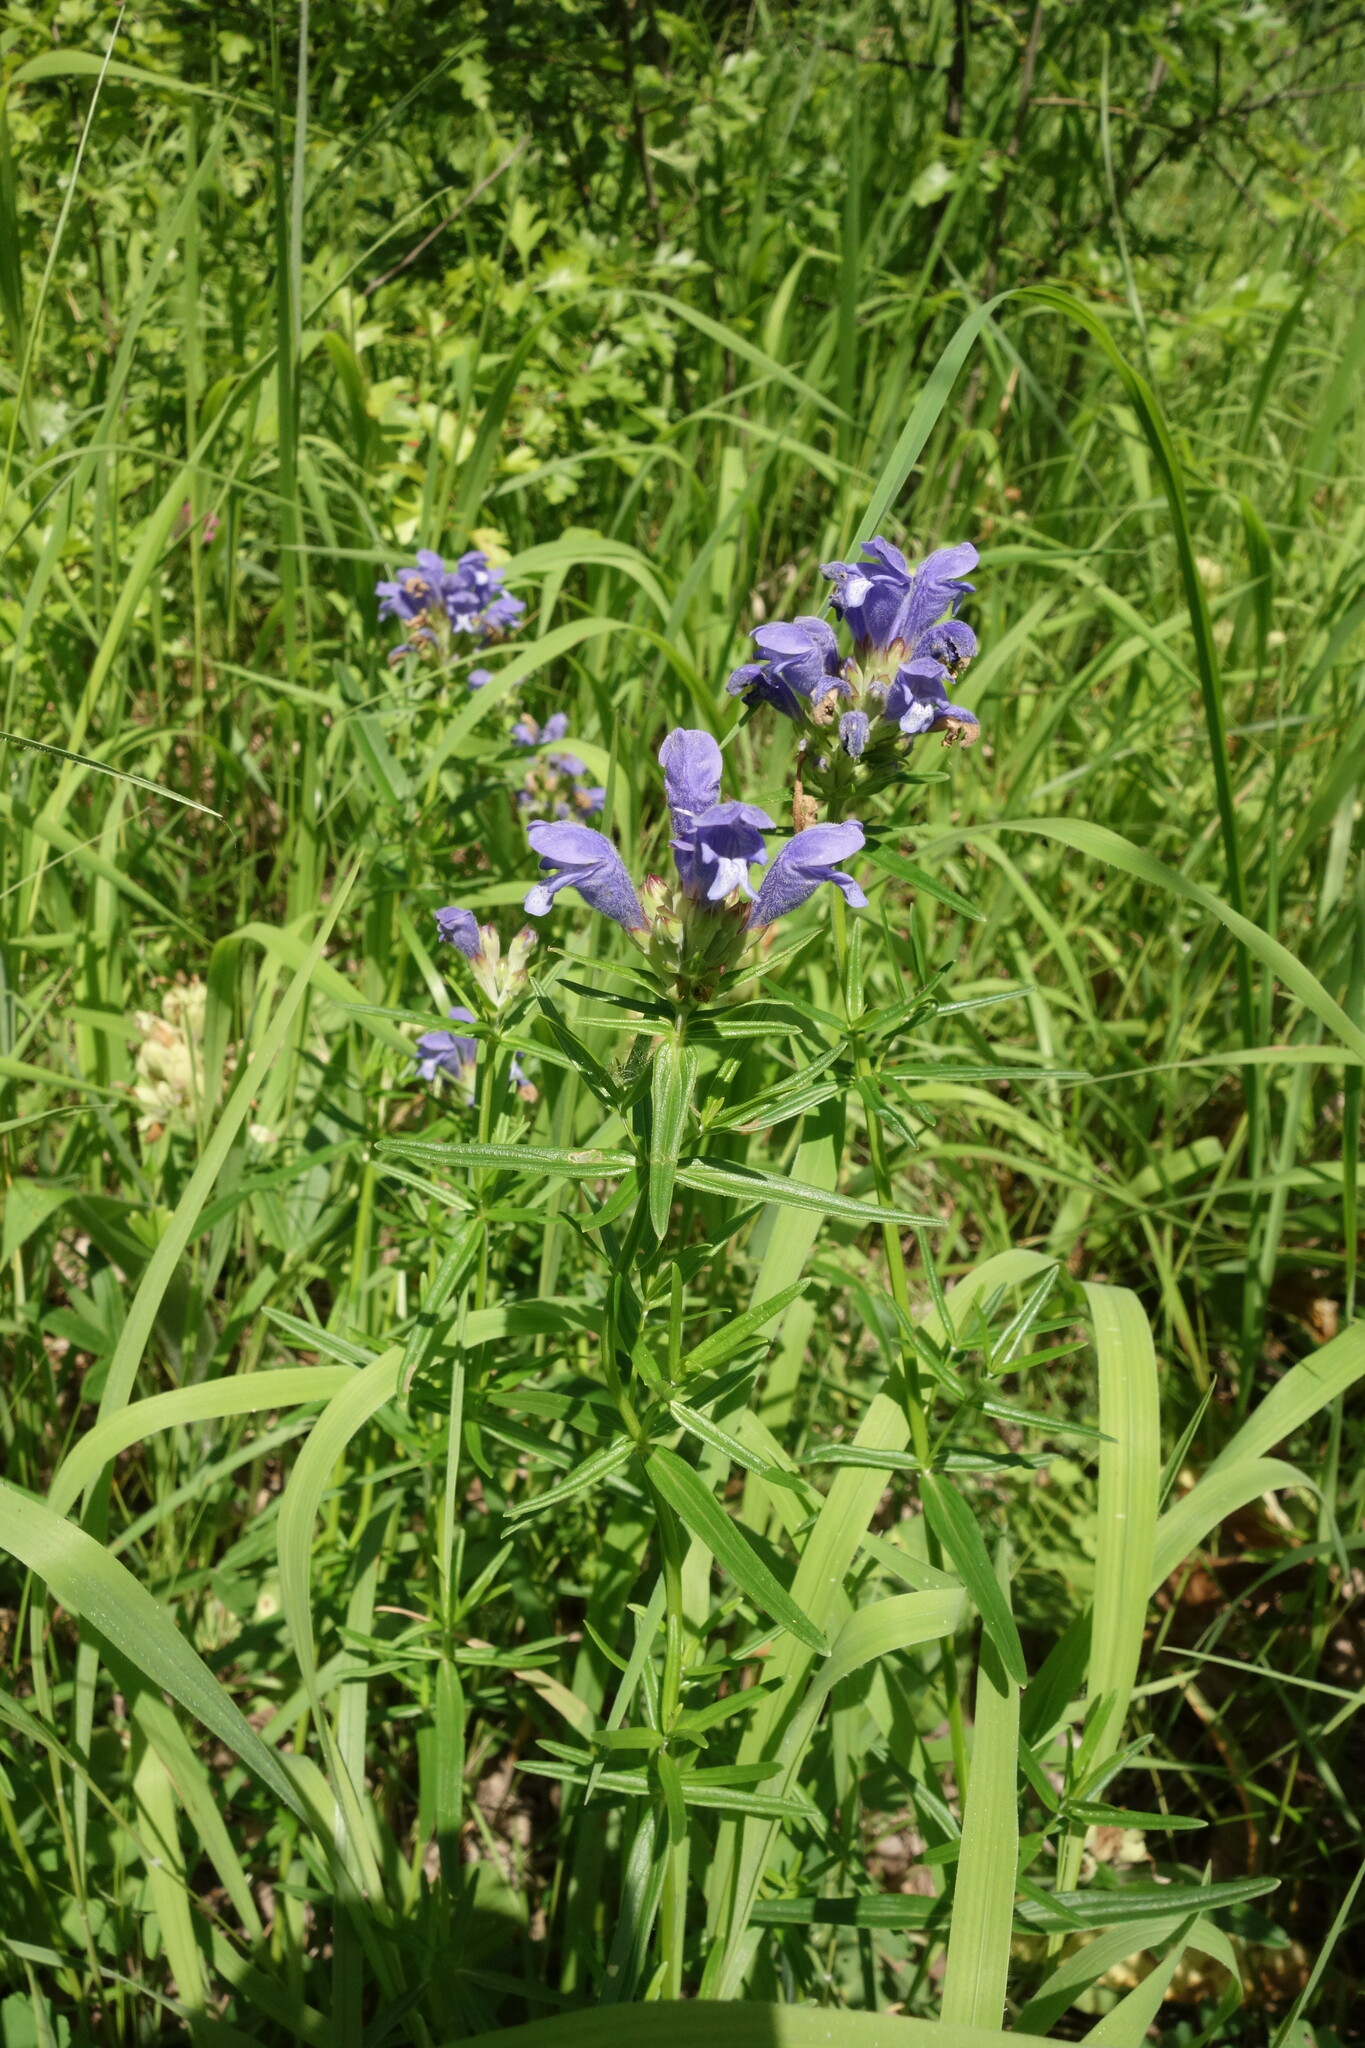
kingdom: Plantae
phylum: Tracheophyta
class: Magnoliopsida
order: Lamiales
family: Lamiaceae
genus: Dracocephalum
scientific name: Dracocephalum ruyschiana
